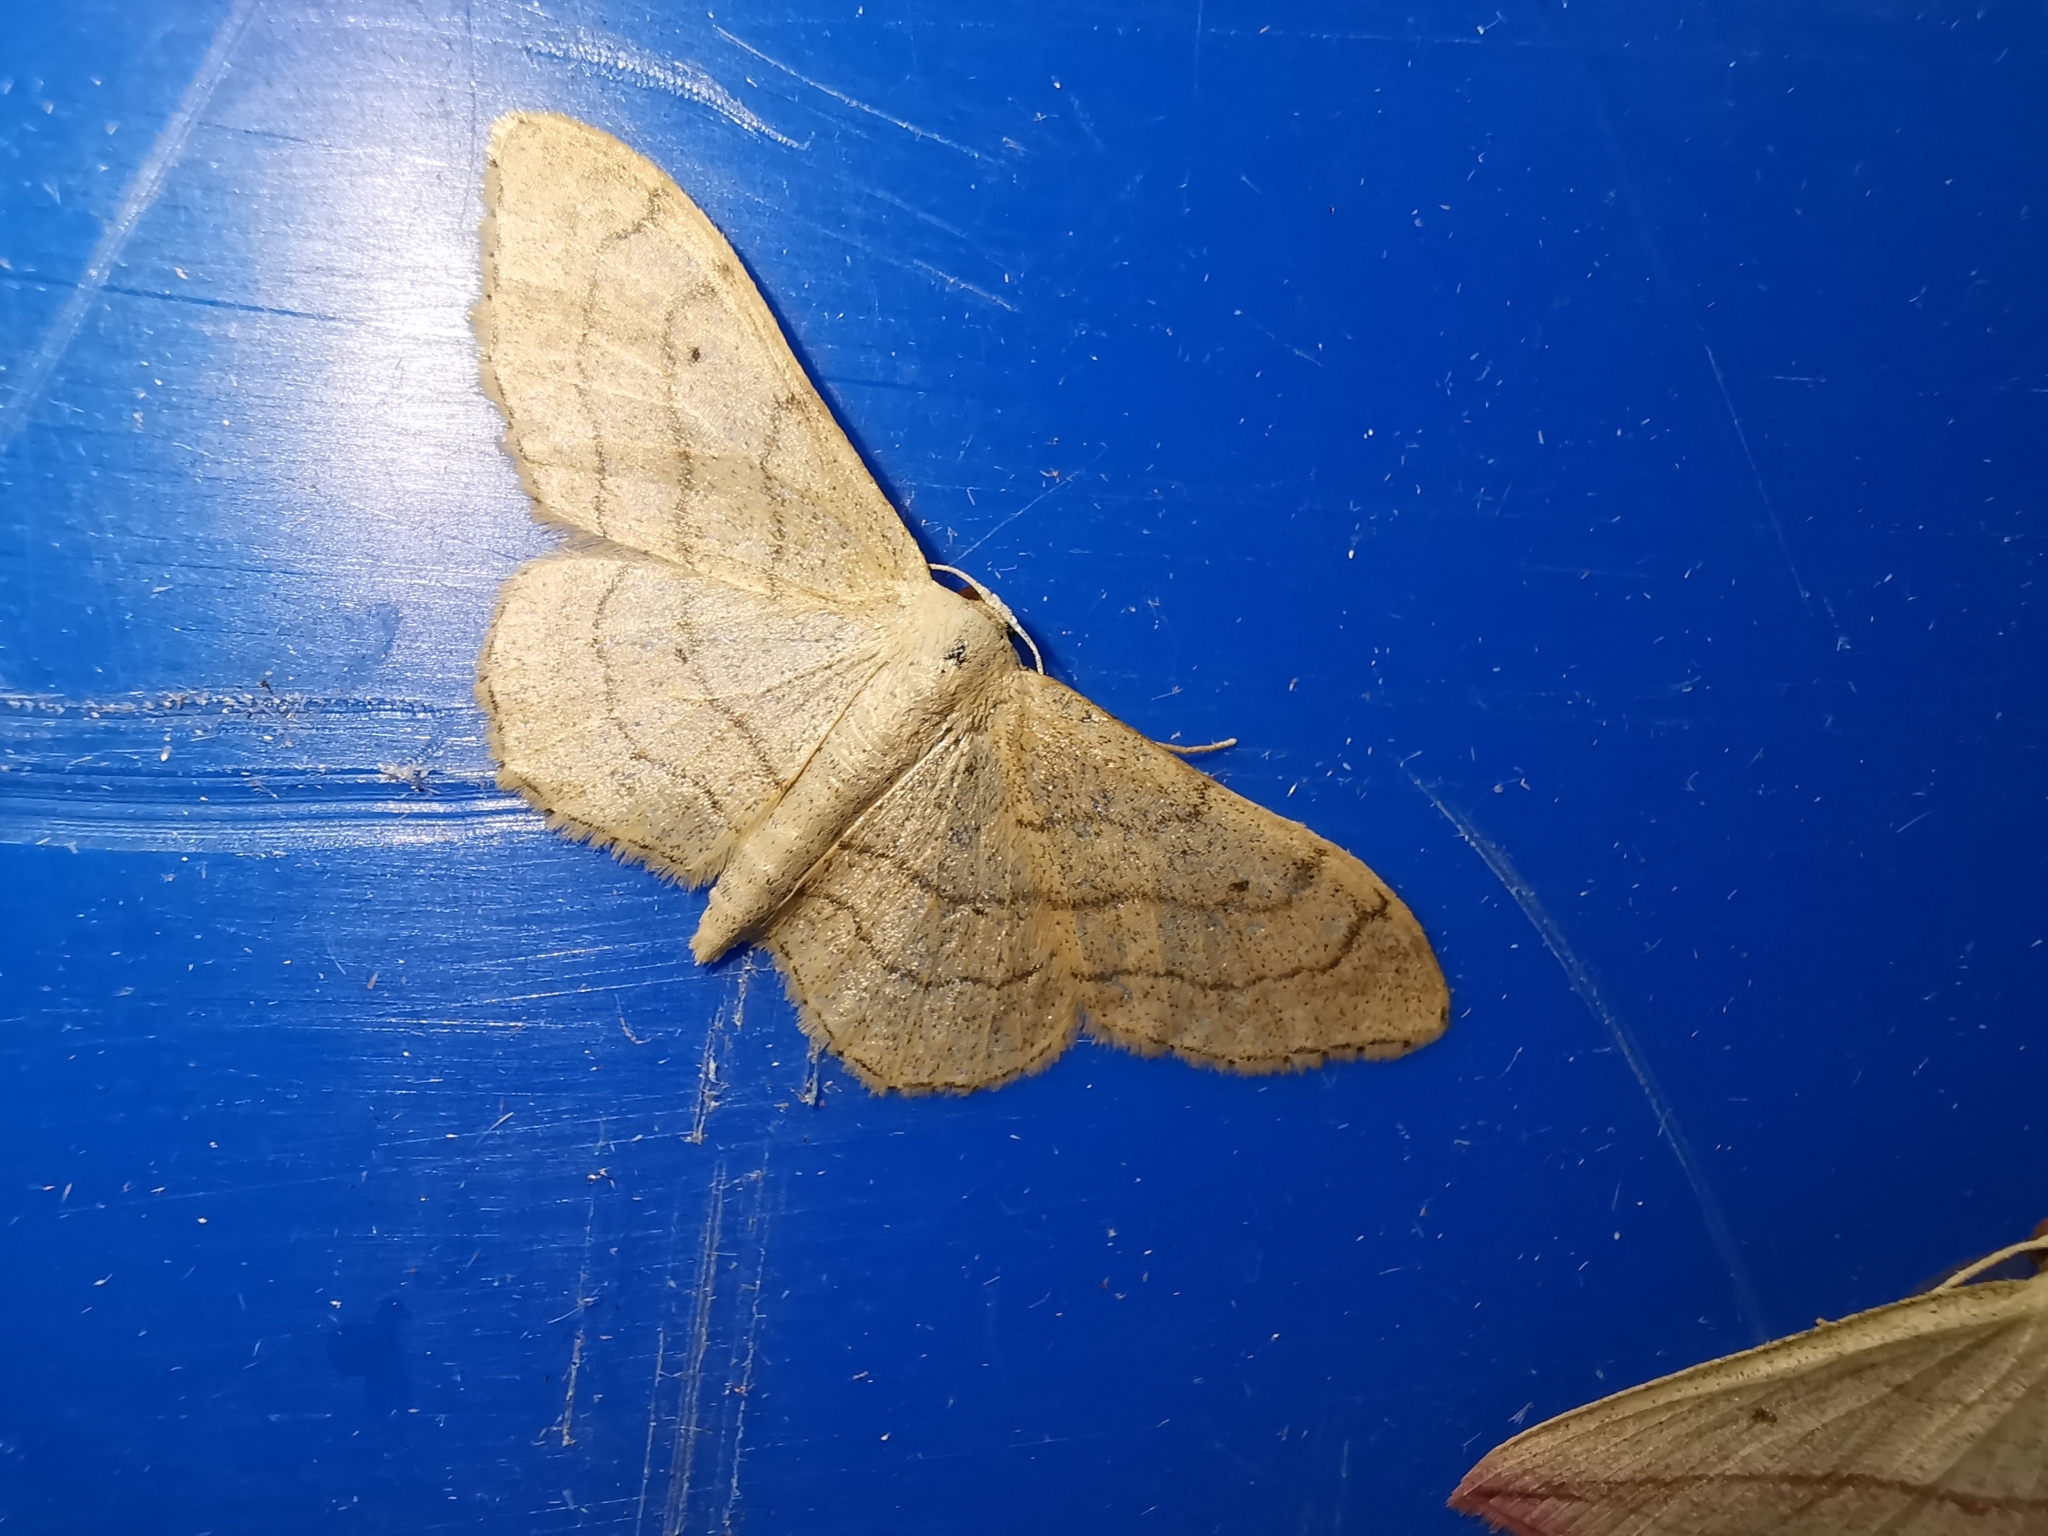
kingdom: Animalia
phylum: Arthropoda
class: Insecta
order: Lepidoptera
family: Geometridae
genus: Idaea
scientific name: Idaea aversata
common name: Riband wave
